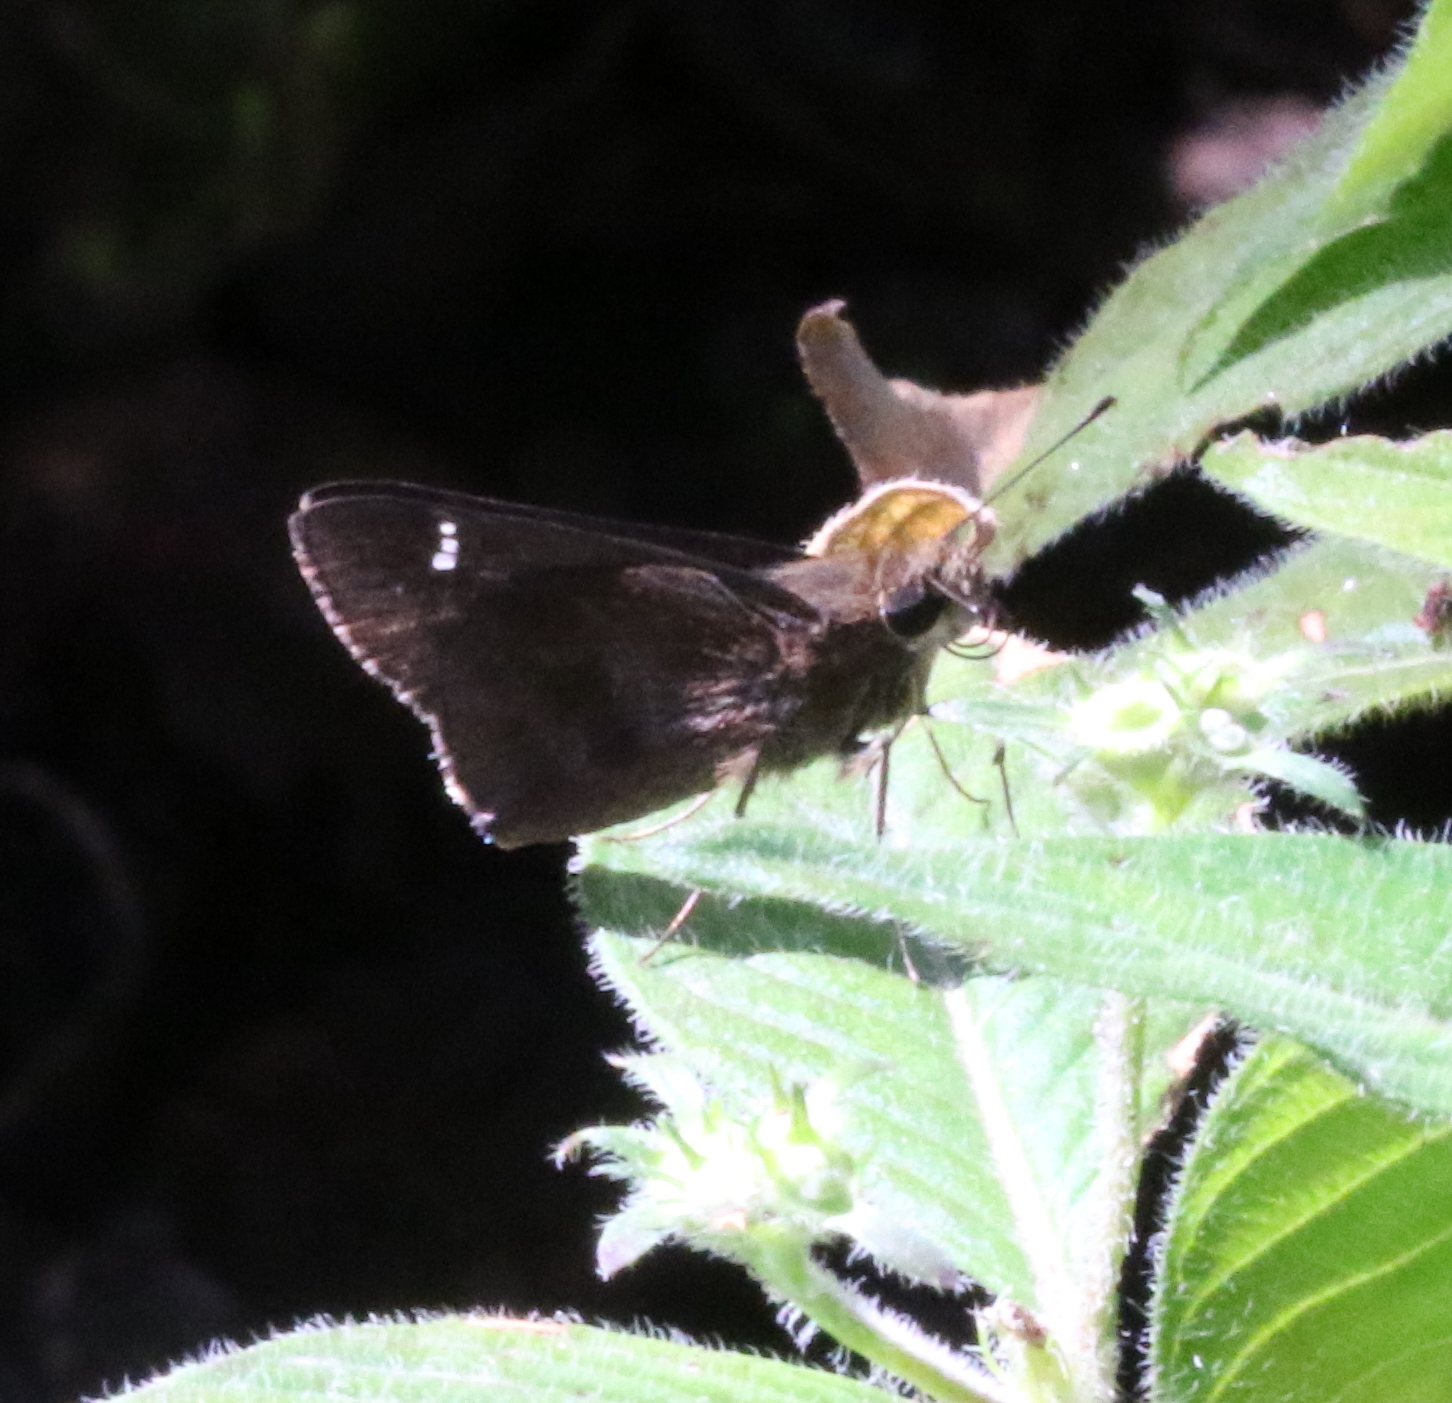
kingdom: Animalia
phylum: Arthropoda
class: Insecta
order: Lepidoptera
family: Hesperiidae
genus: Lerema
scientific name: Lerema accius
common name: Clouded skipper
